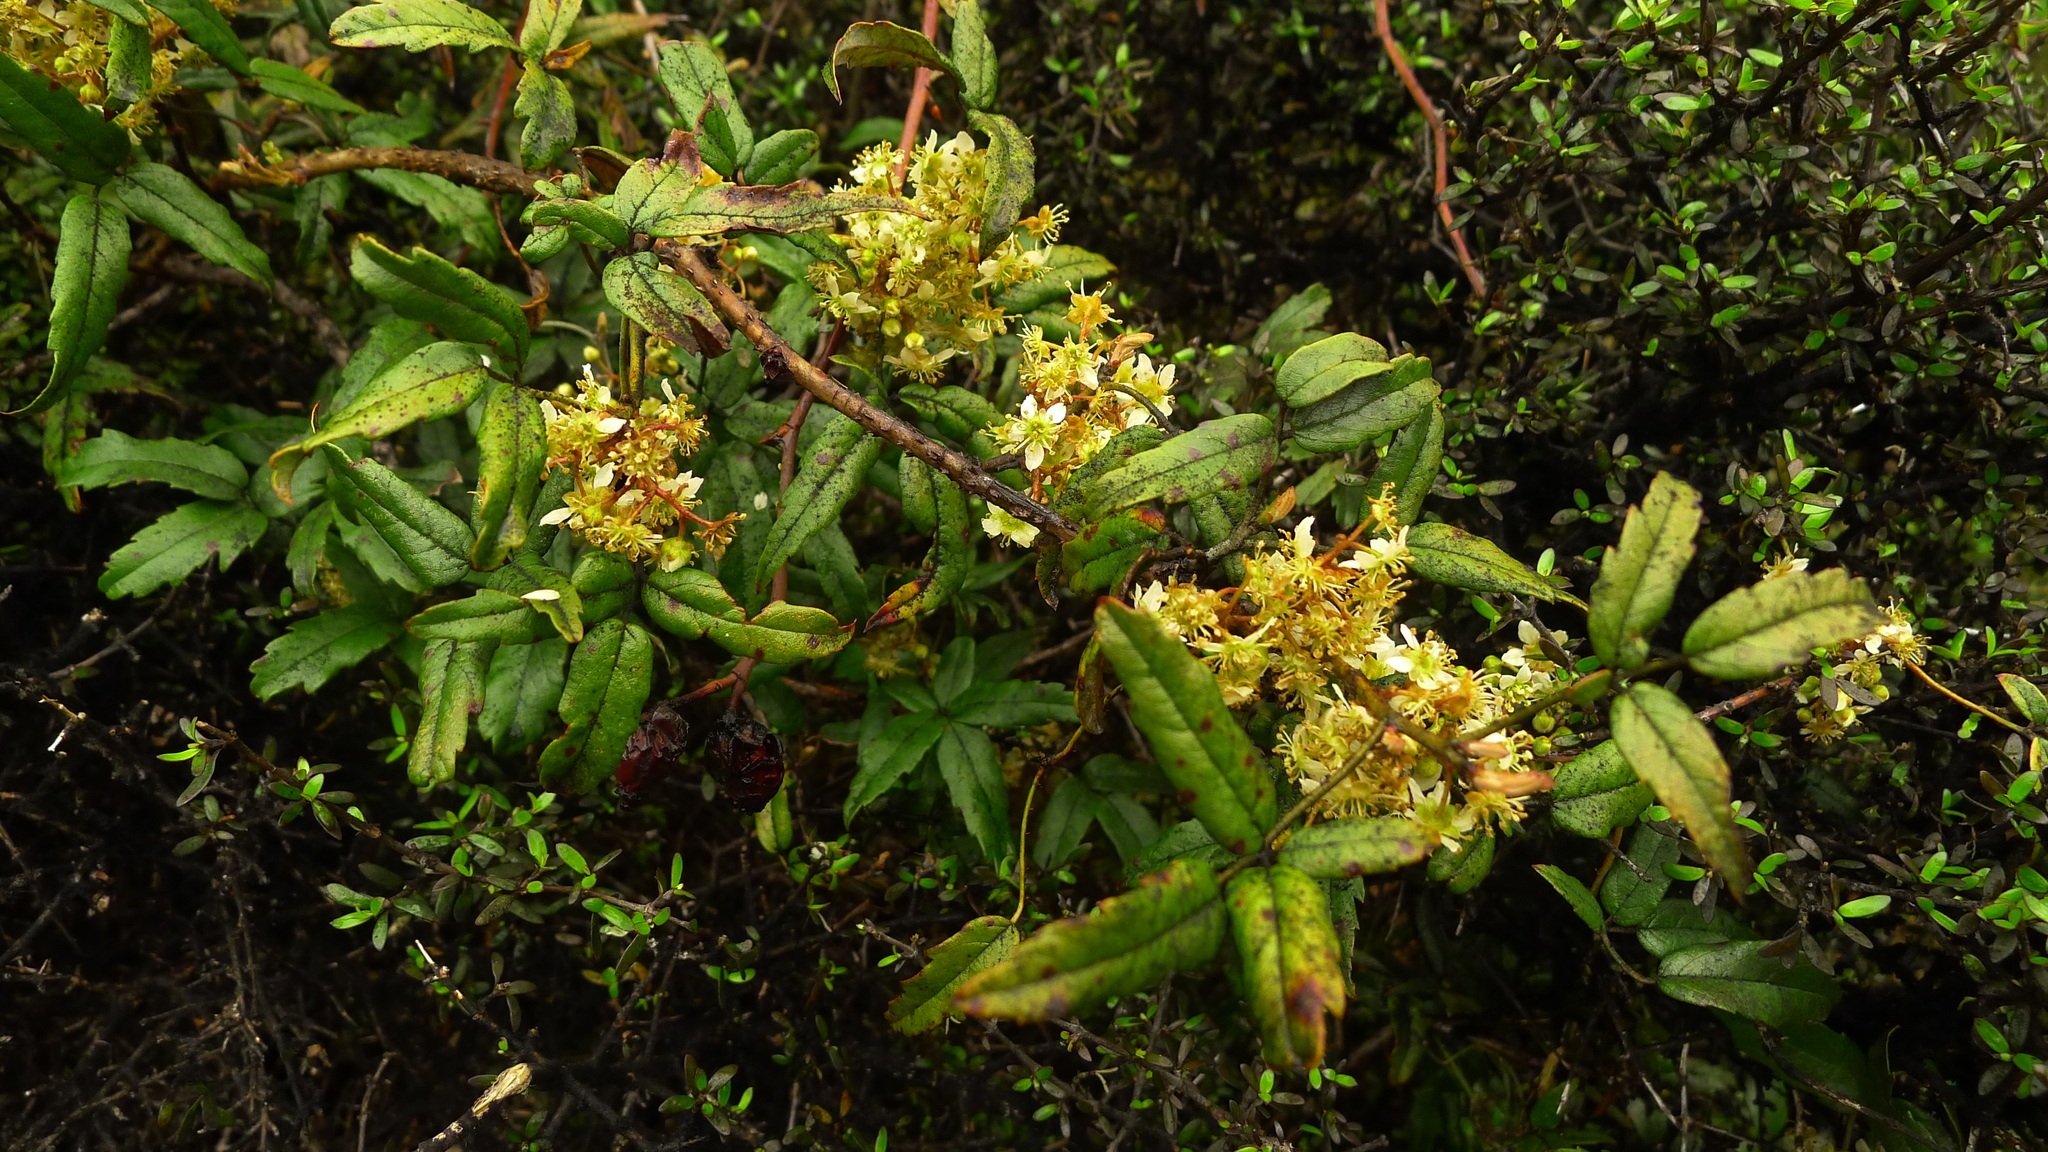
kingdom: Plantae
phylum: Tracheophyta
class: Magnoliopsida
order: Rosales
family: Rosaceae
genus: Rubus
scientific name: Rubus cissoides
